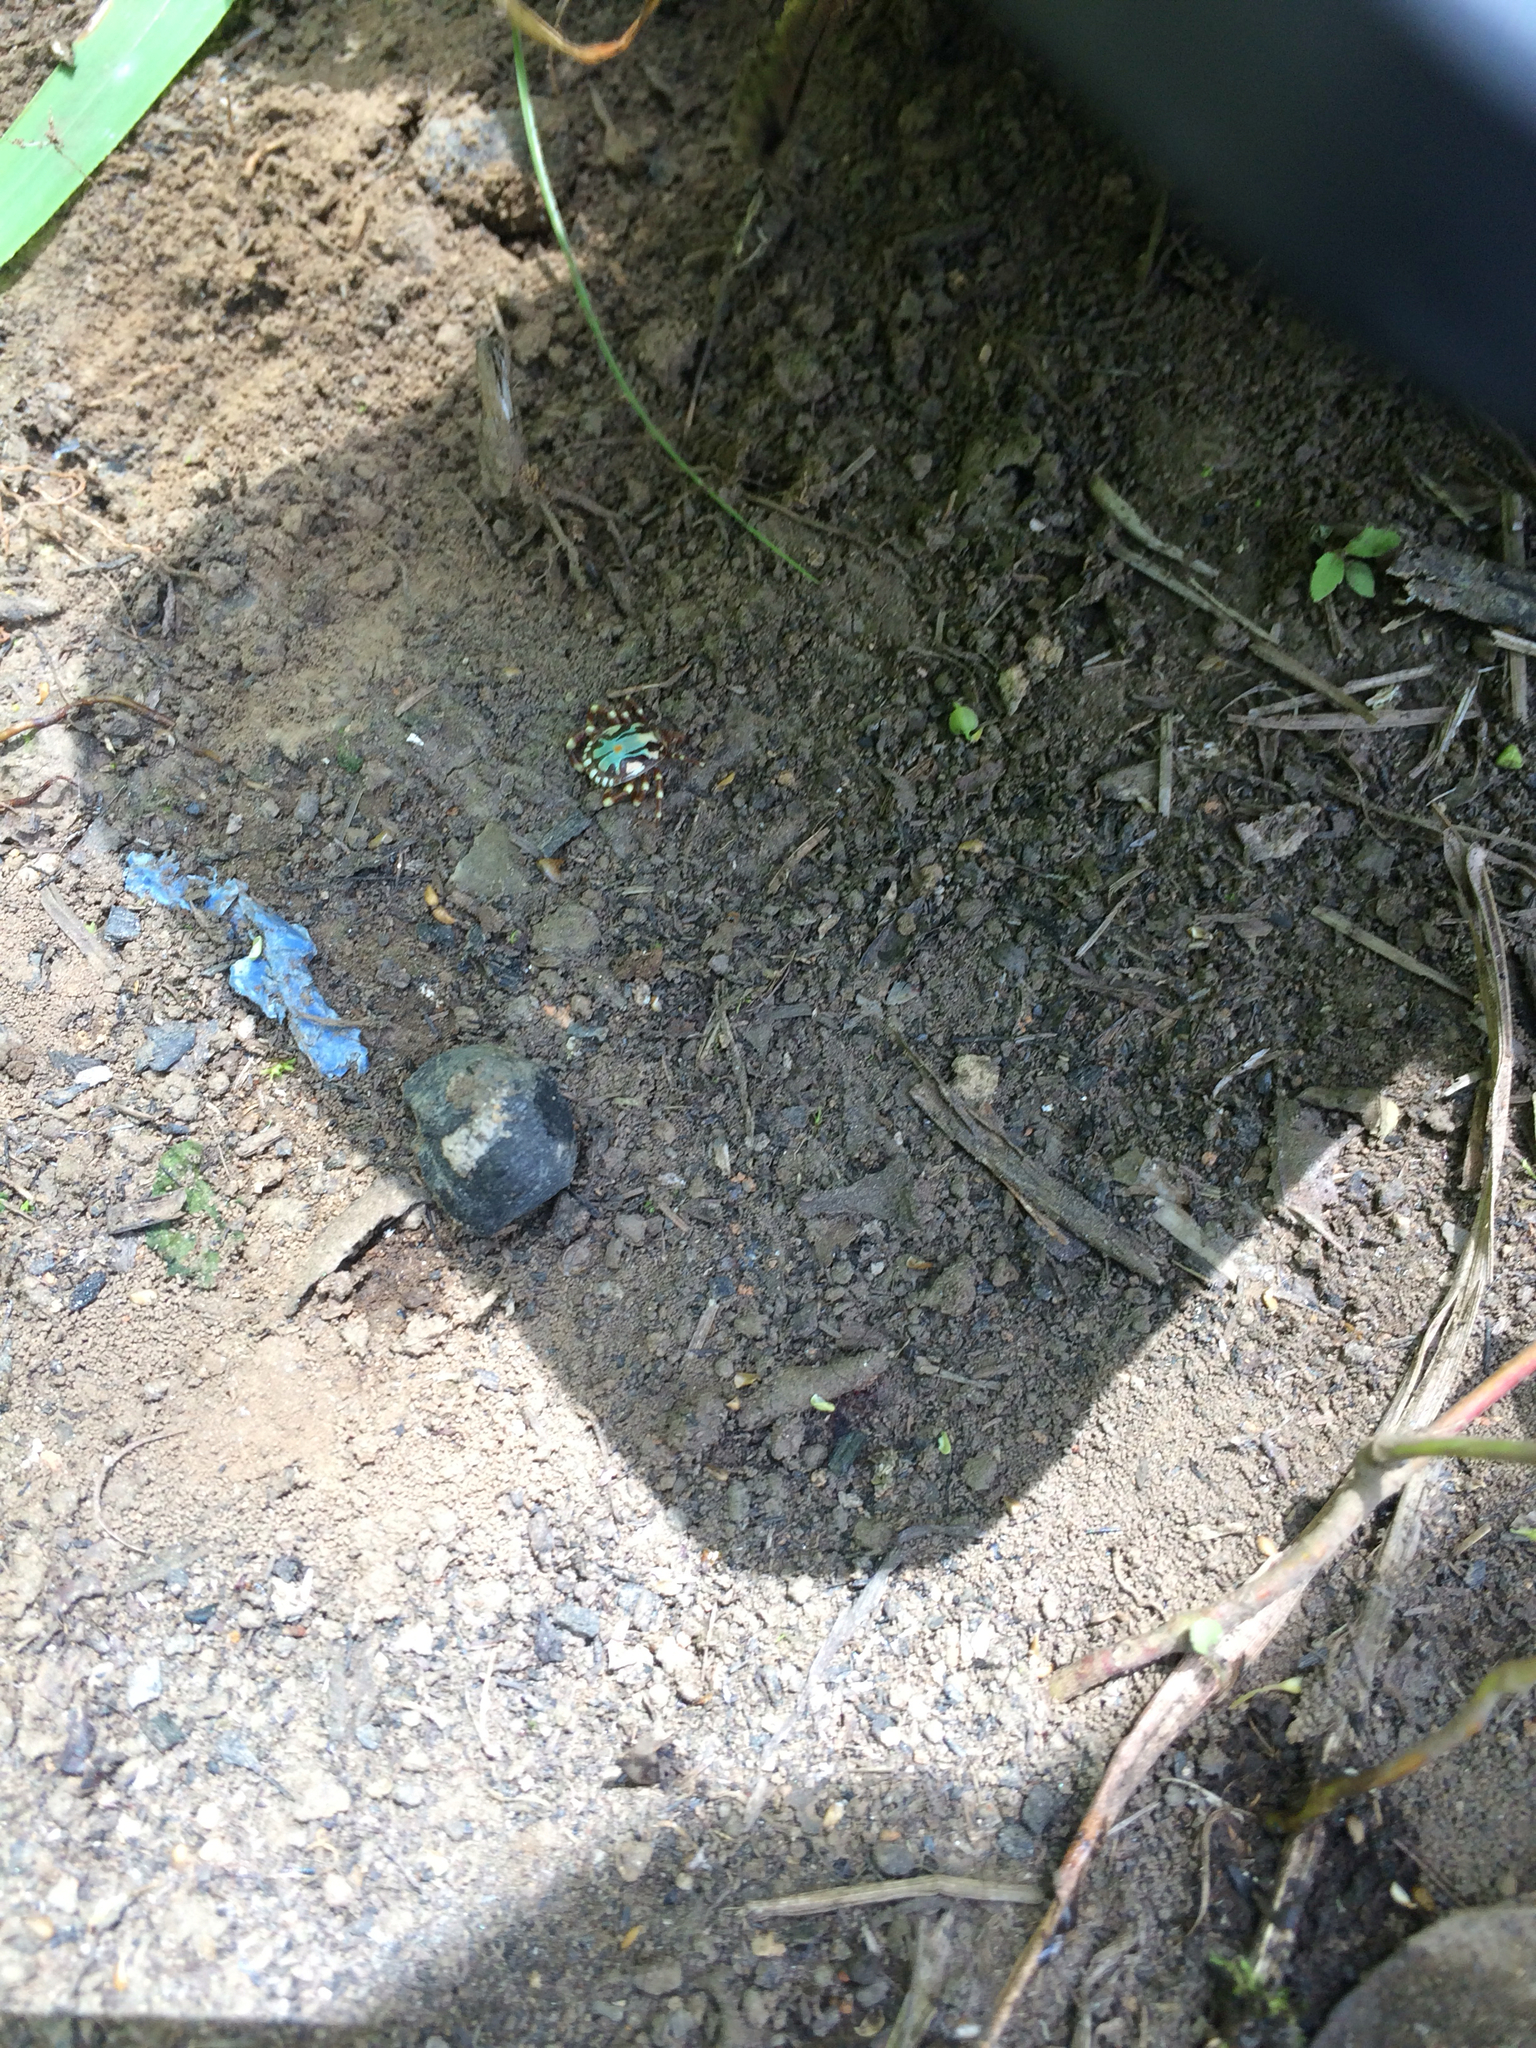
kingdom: Animalia
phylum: Arthropoda
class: Arachnida
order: Ixodida
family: Ixodidae
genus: Amblyomma
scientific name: Amblyomma splendidum
